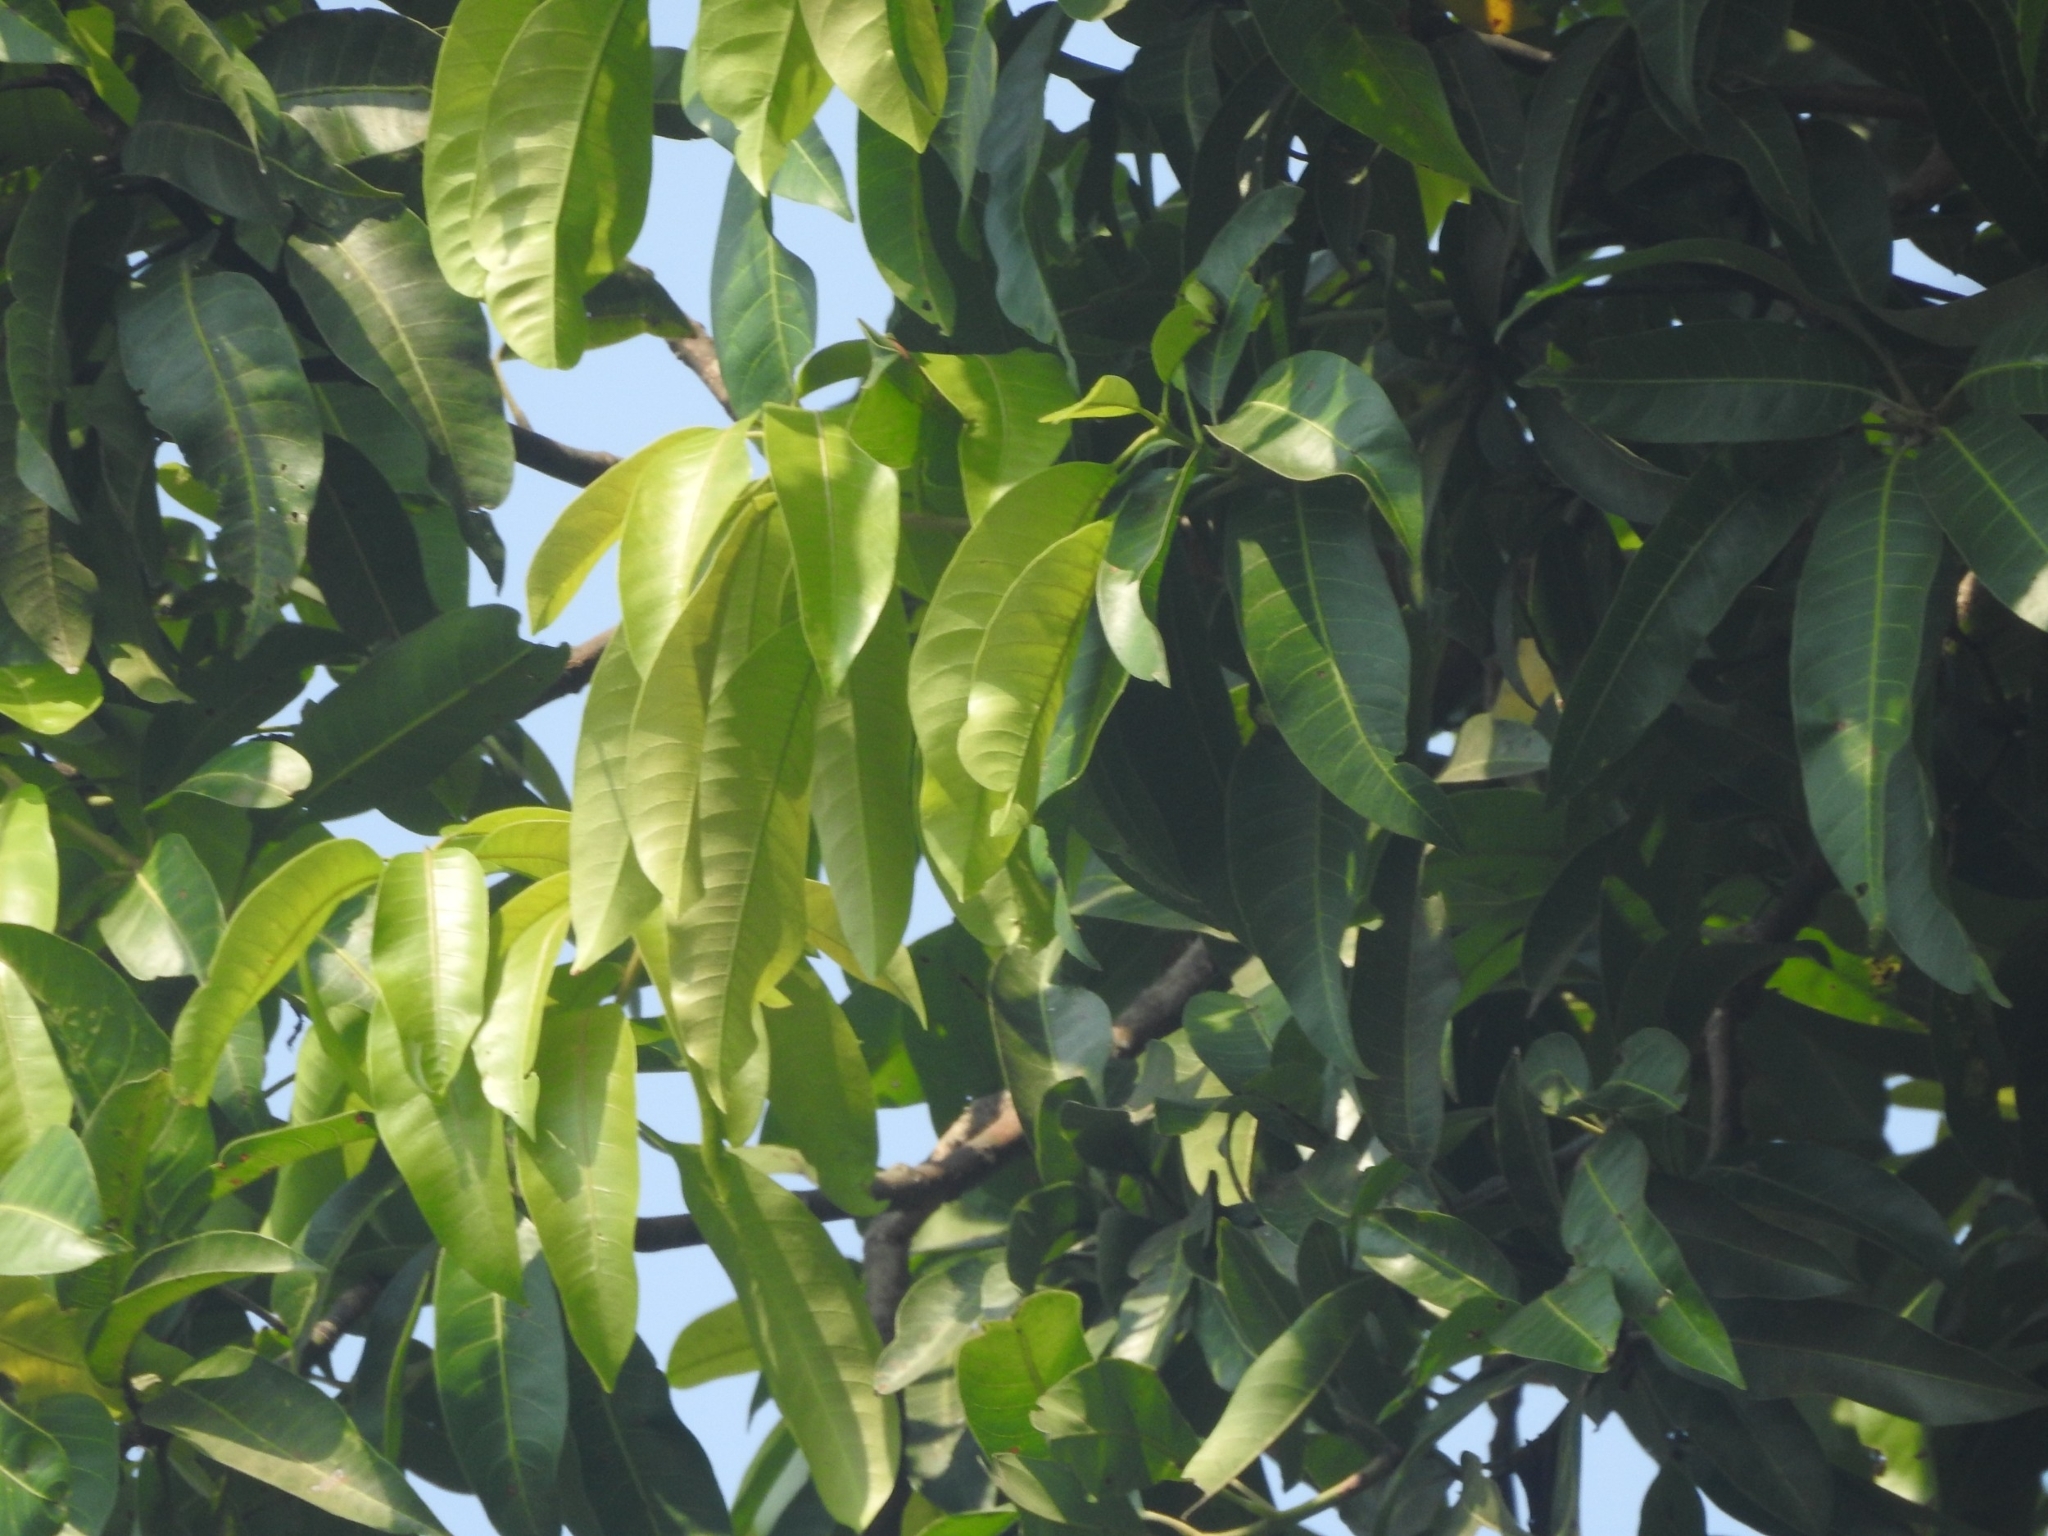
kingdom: Plantae
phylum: Tracheophyta
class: Magnoliopsida
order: Sapindales
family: Anacardiaceae
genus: Mangifera
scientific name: Mangifera indica
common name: Mango
